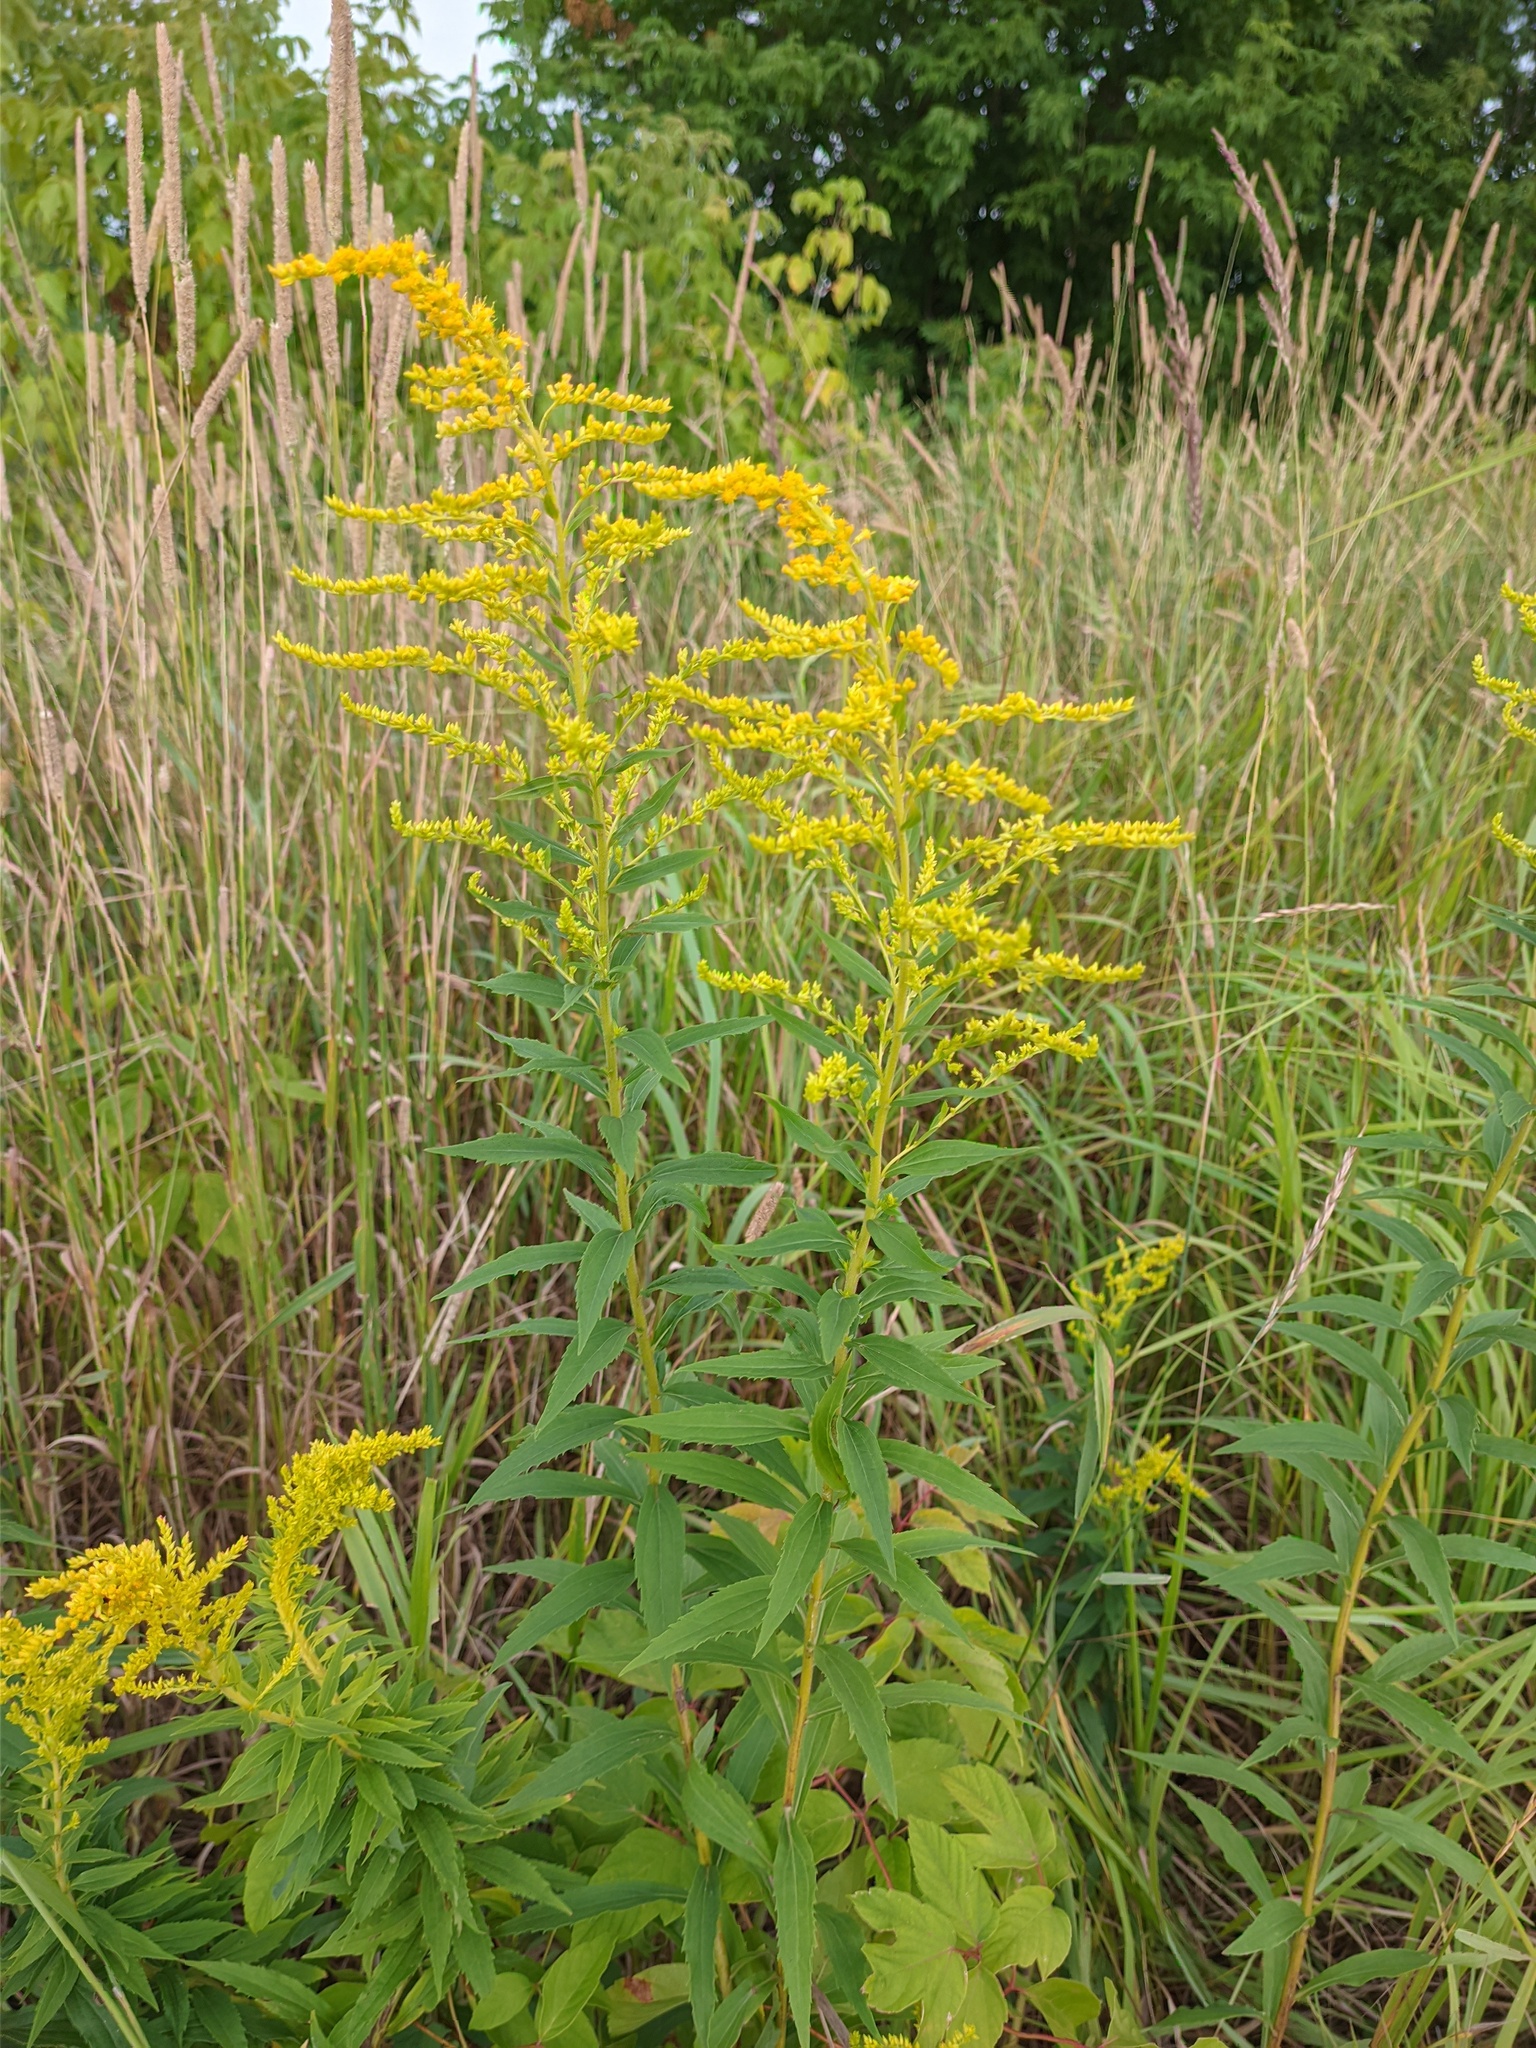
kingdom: Plantae
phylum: Tracheophyta
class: Magnoliopsida
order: Asterales
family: Asteraceae
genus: Solidago
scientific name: Solidago canadensis
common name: Canada goldenrod
